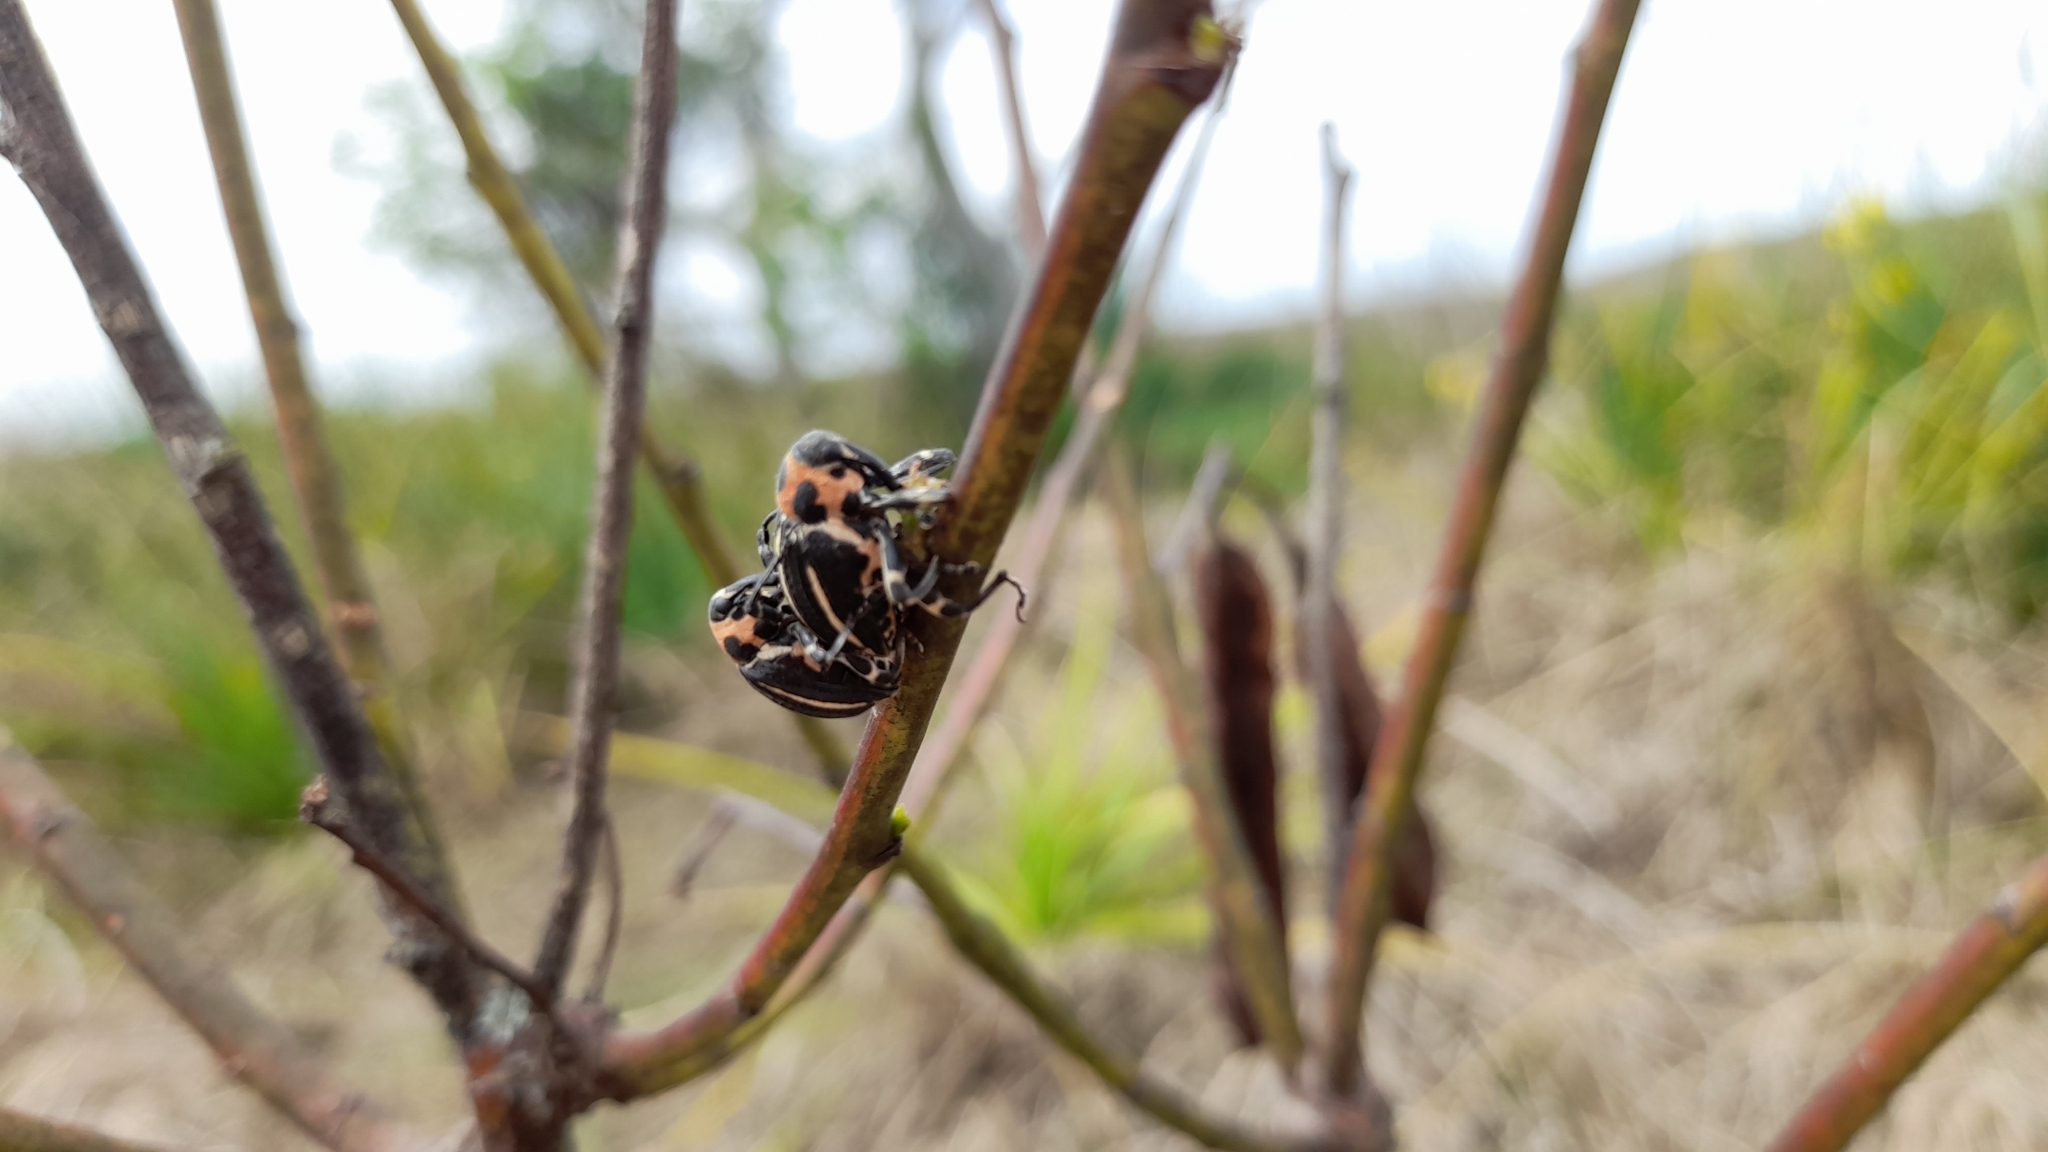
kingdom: Animalia
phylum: Arthropoda
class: Insecta
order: Coleoptera
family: Curculionidae
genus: Neodiplogrammus
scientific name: Neodiplogrammus
